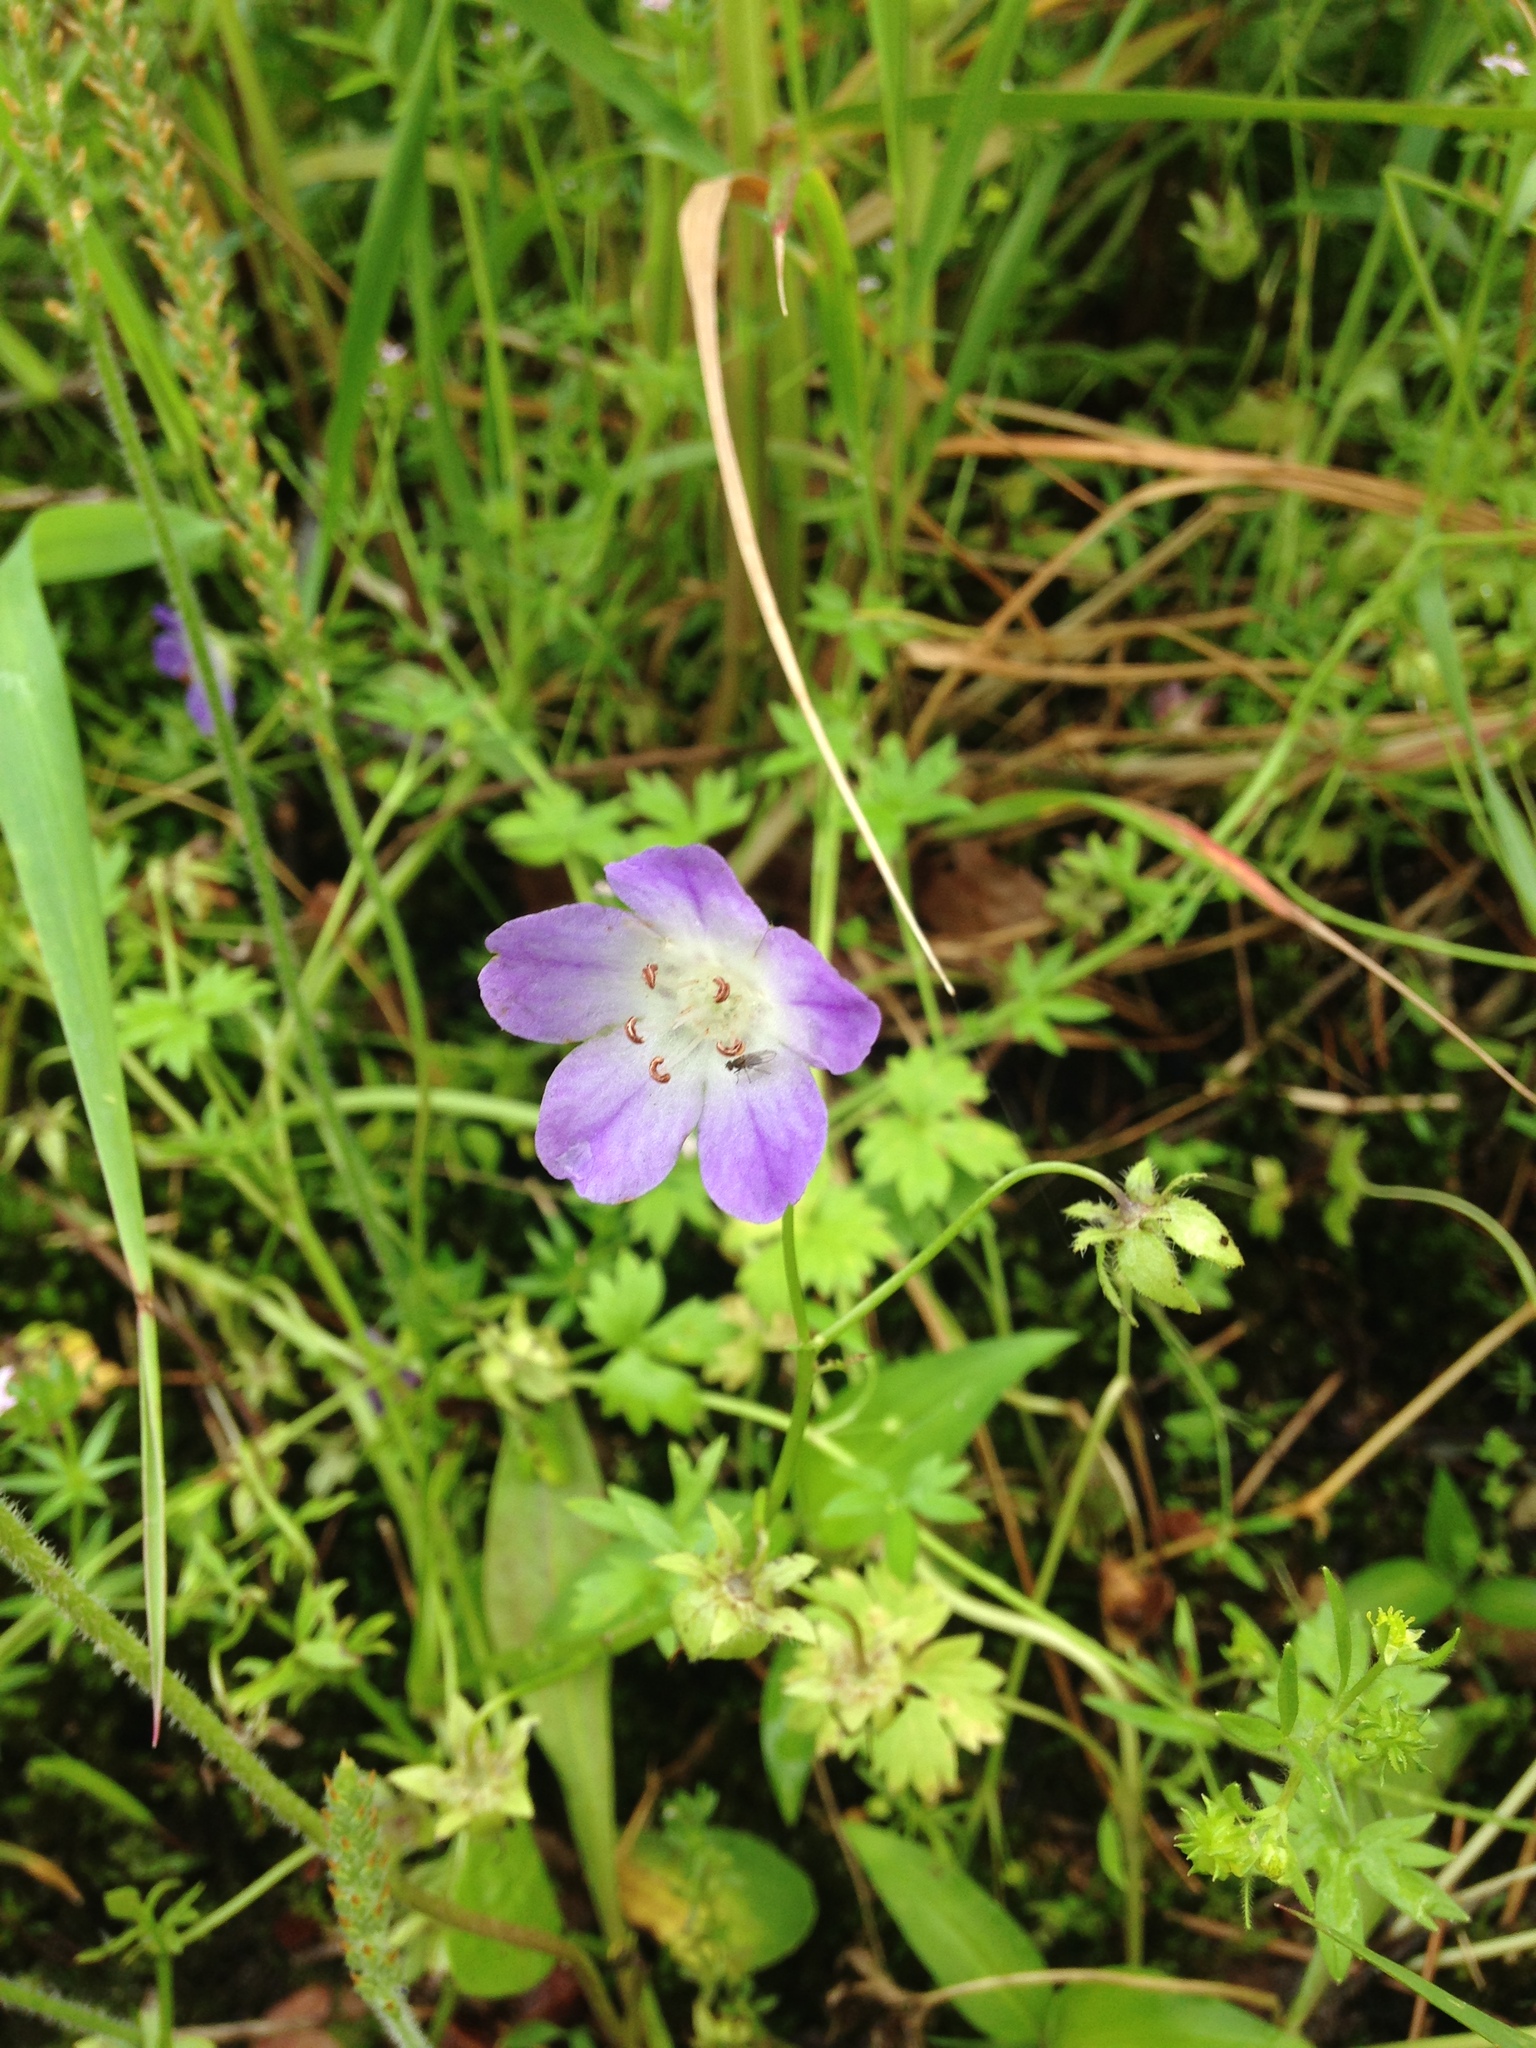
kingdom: Plantae
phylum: Tracheophyta
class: Magnoliopsida
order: Boraginales
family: Hydrophyllaceae
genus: Nemophila
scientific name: Nemophila phacelioides
